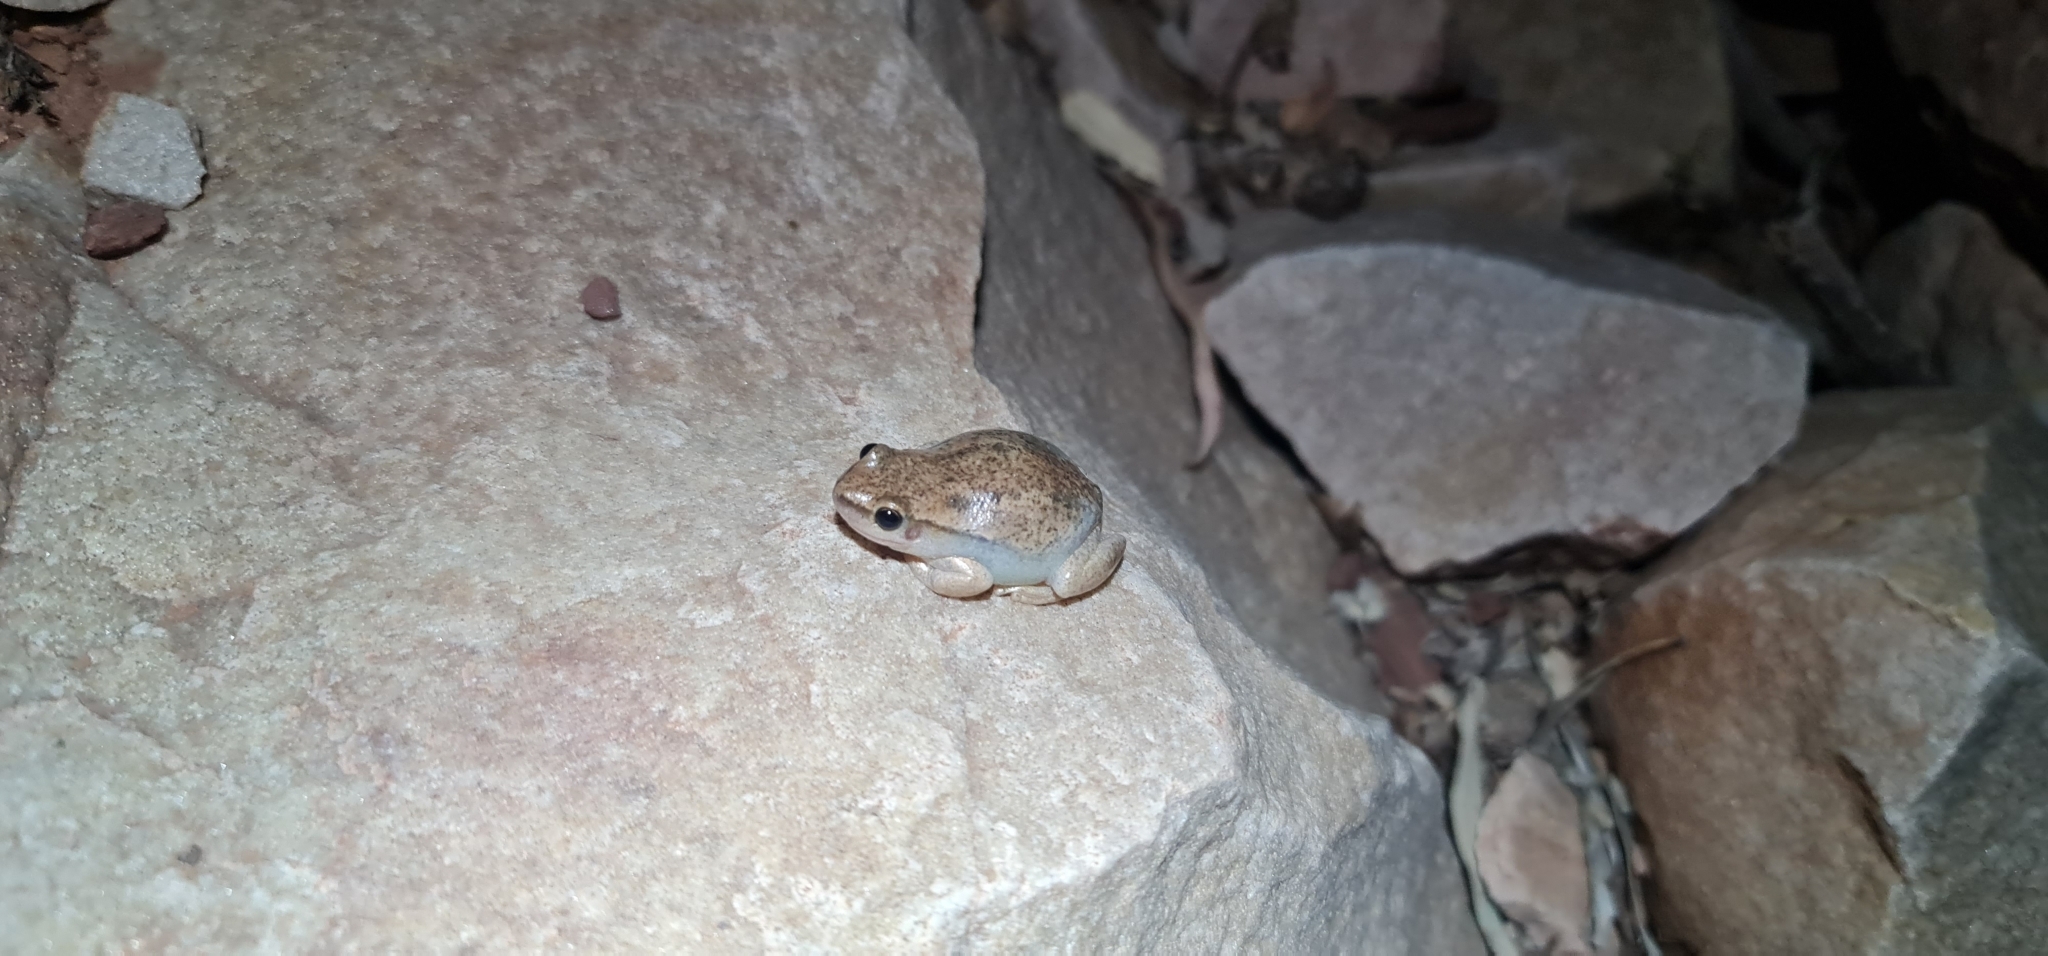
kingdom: Animalia
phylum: Chordata
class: Amphibia
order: Anura
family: Pelodryadidae
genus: Litoria
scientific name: Litoria rubella
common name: Desert tree frog
